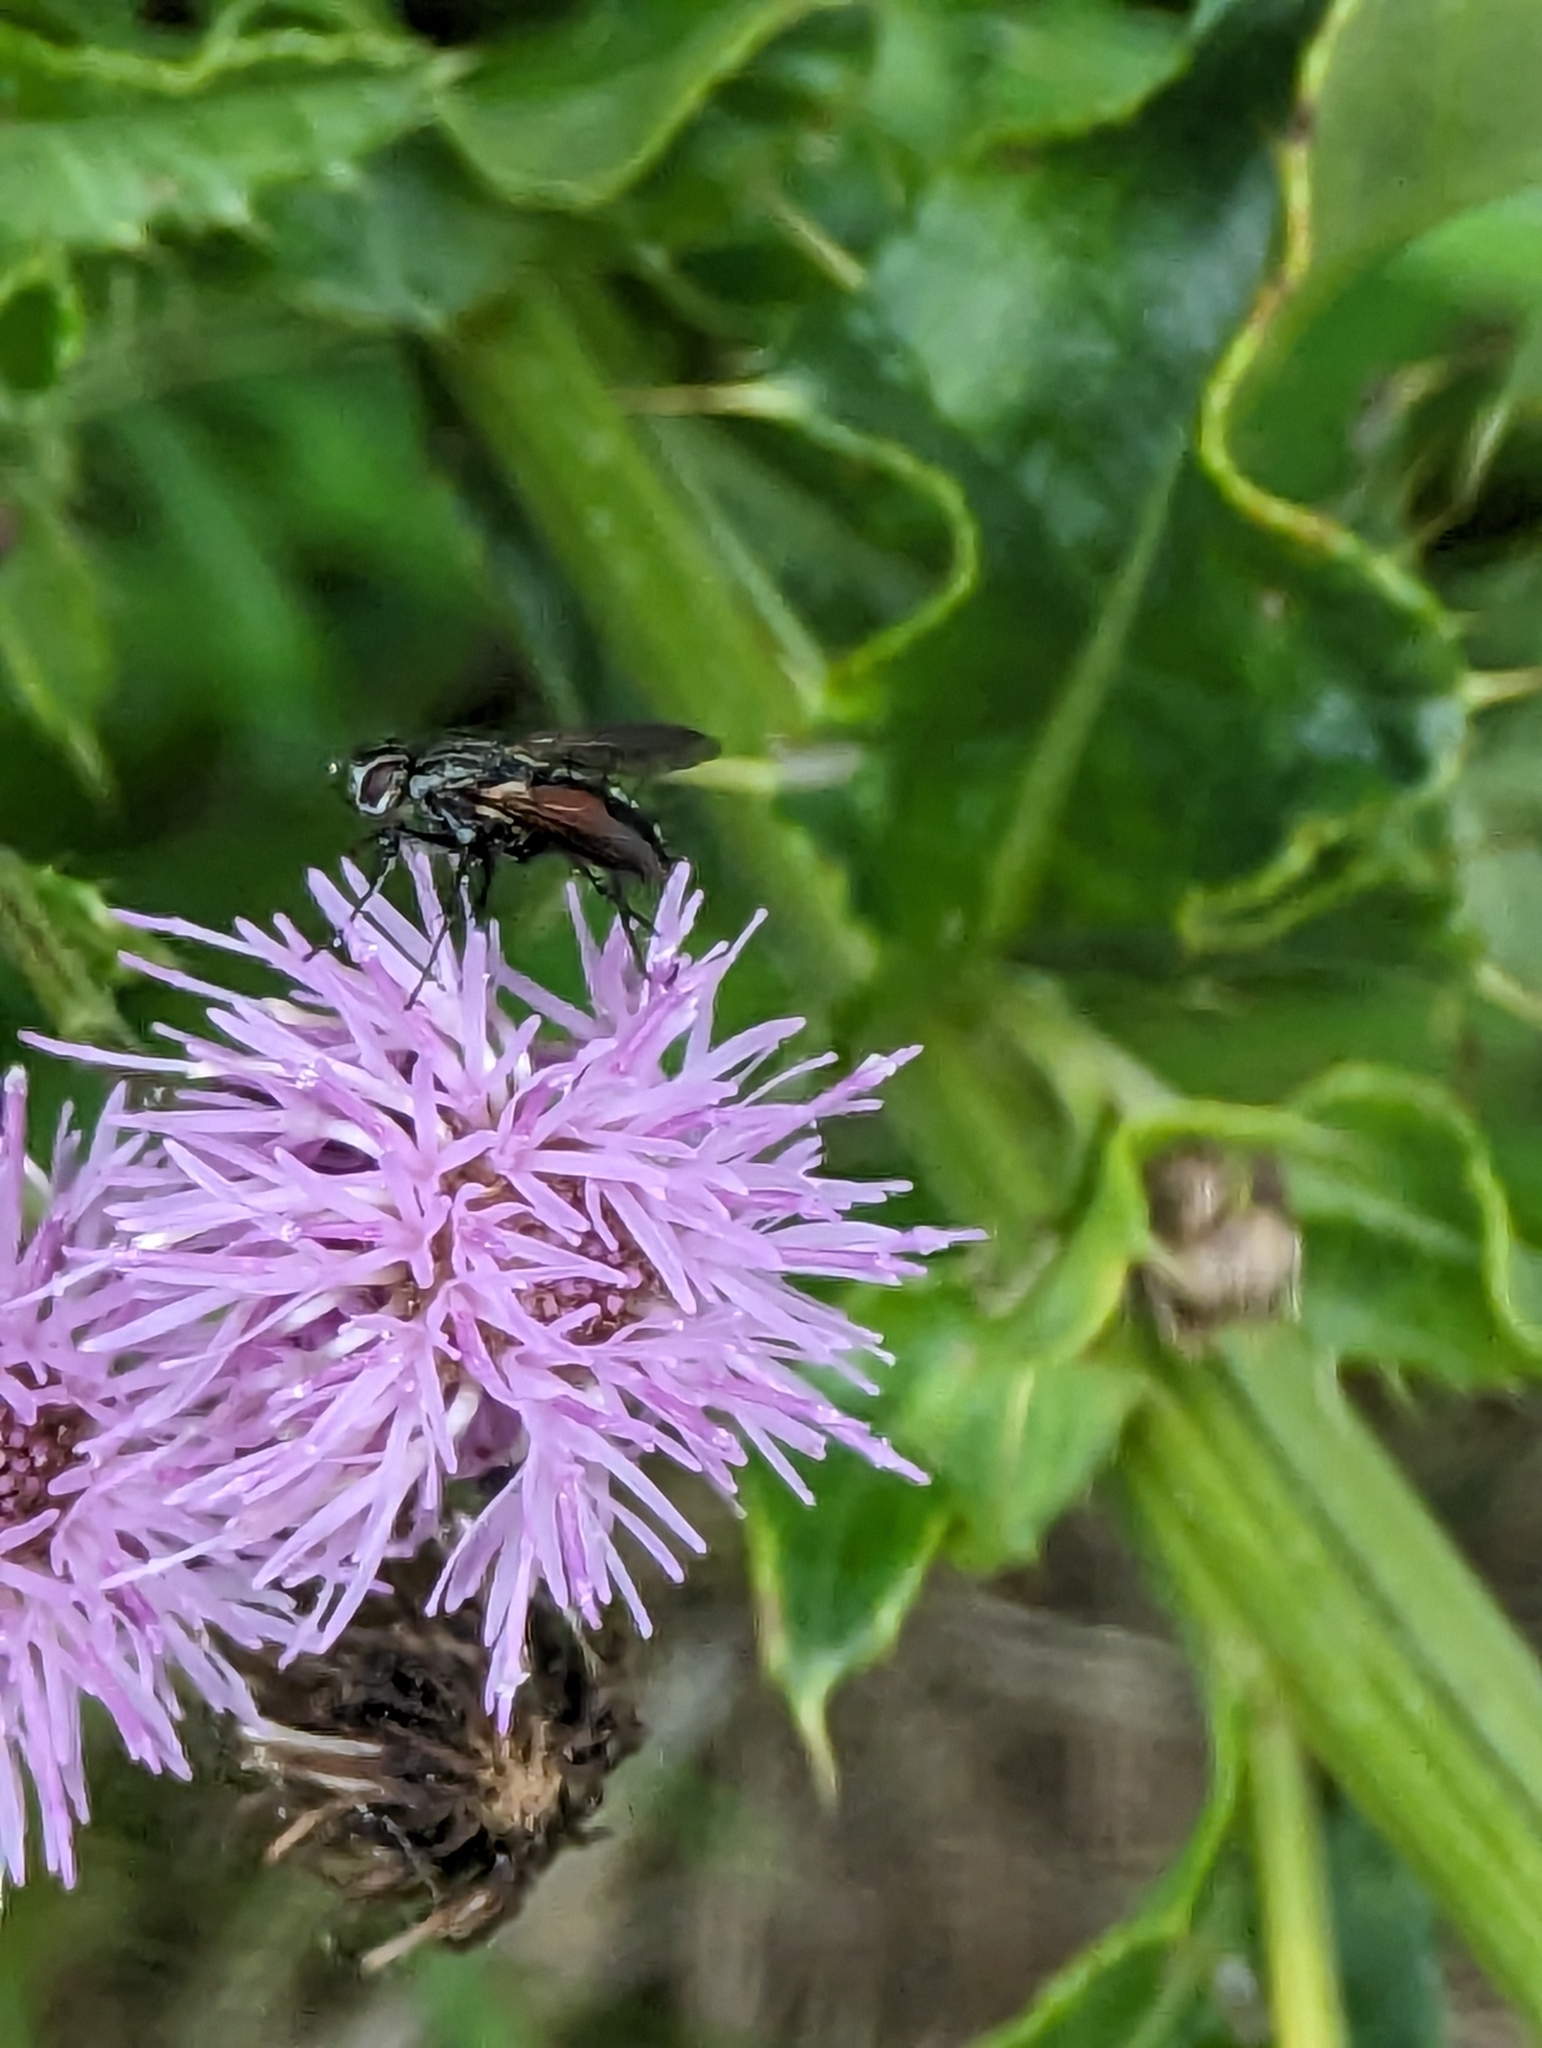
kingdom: Animalia
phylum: Arthropoda
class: Insecta
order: Diptera
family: Tachinidae
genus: Eriothrix
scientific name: Eriothrix rufomaculatus
